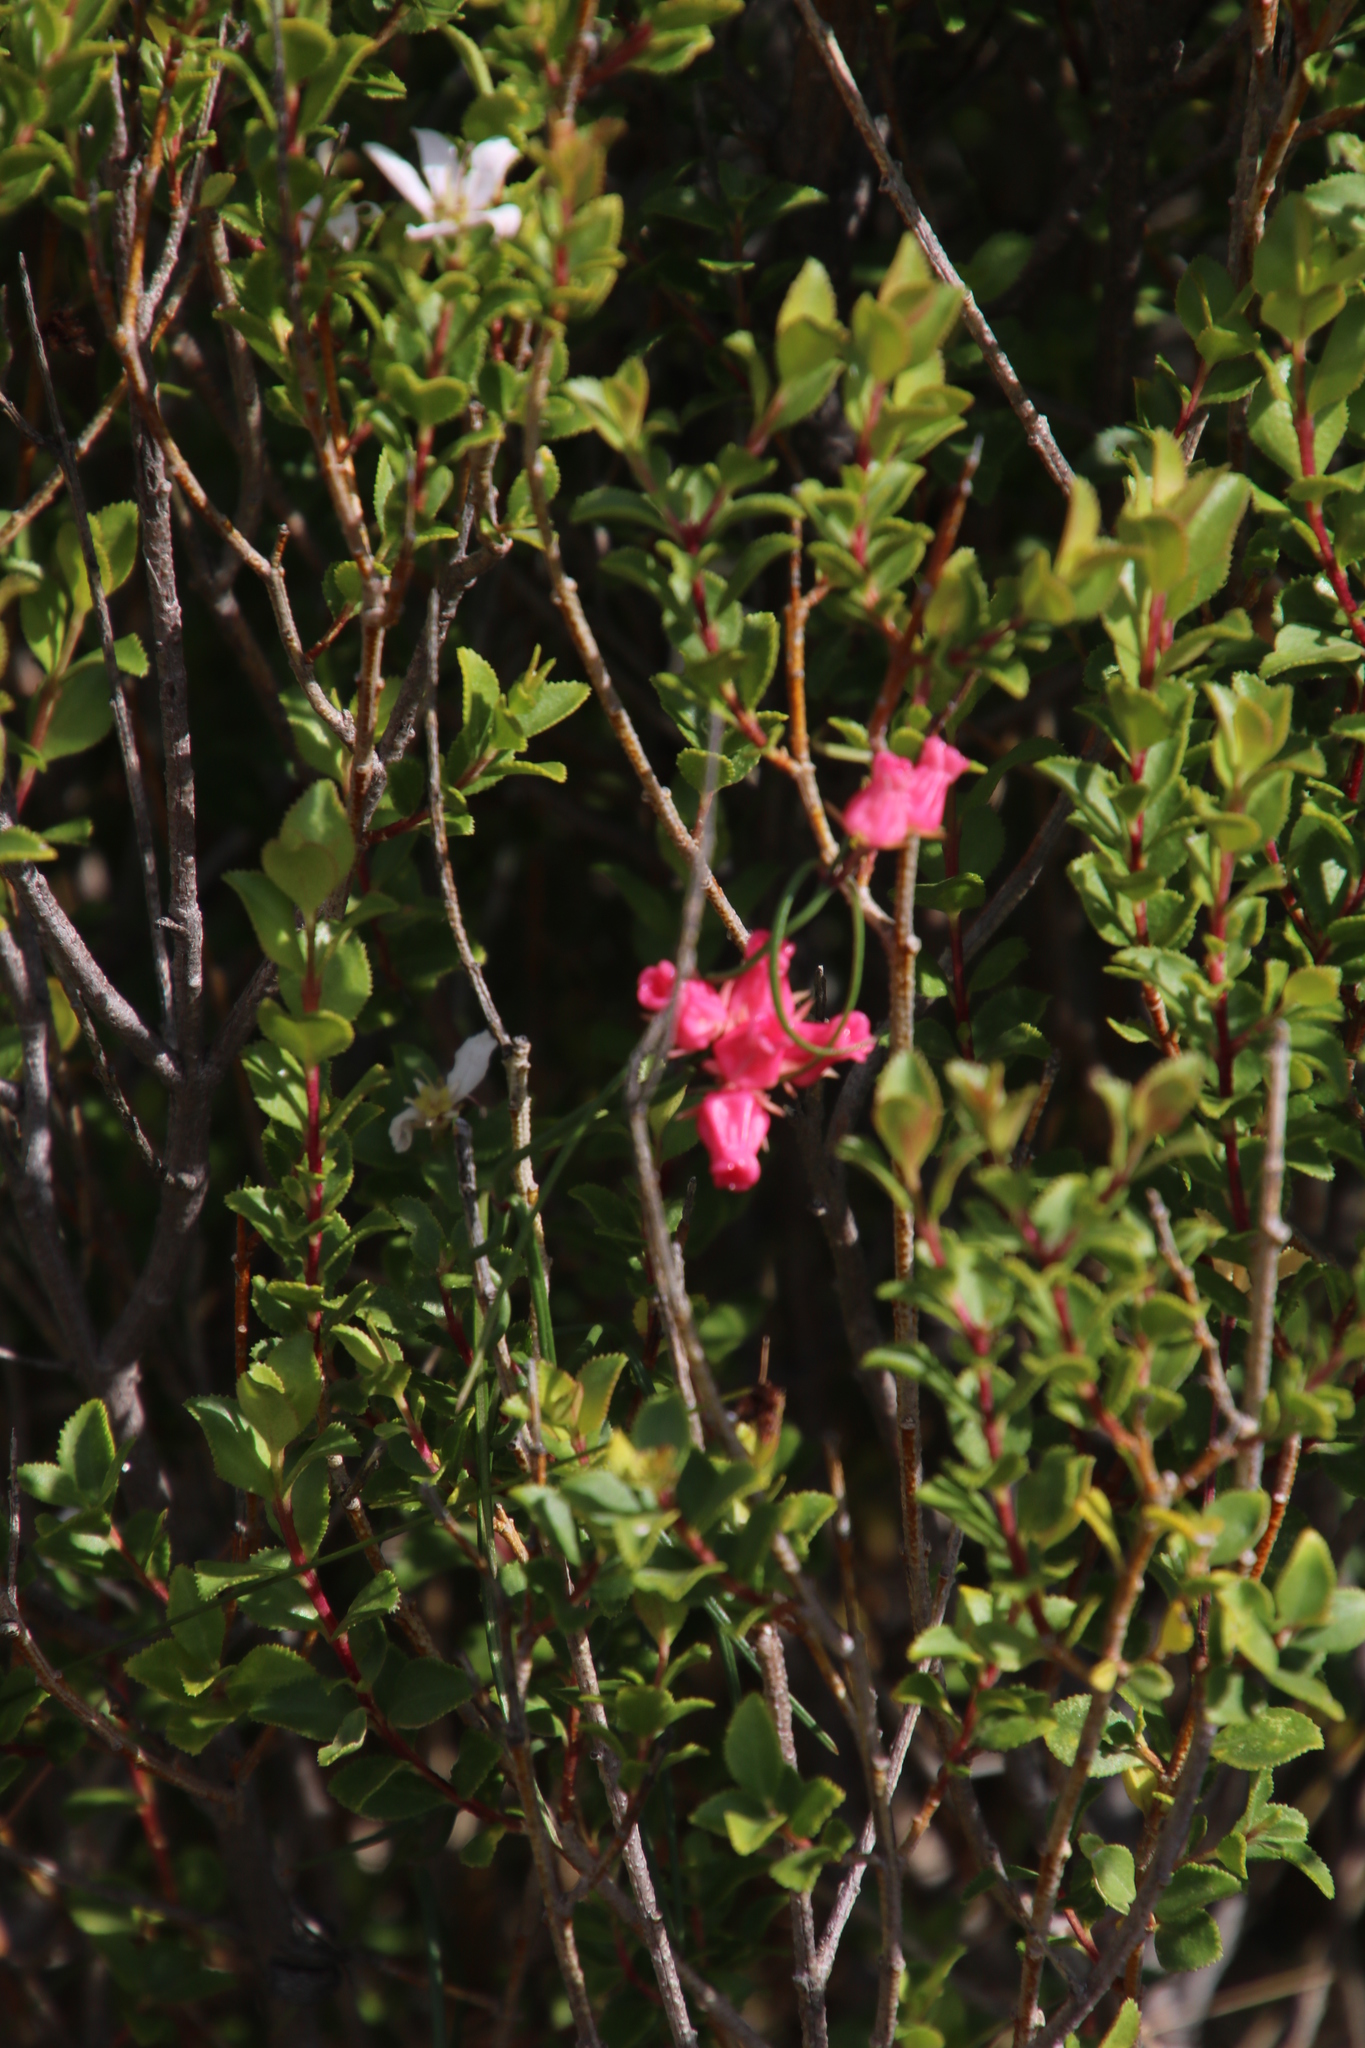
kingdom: Plantae
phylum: Tracheophyta
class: Magnoliopsida
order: Gentianales
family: Apocynaceae
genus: Microloma
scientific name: Microloma tenuifolium
